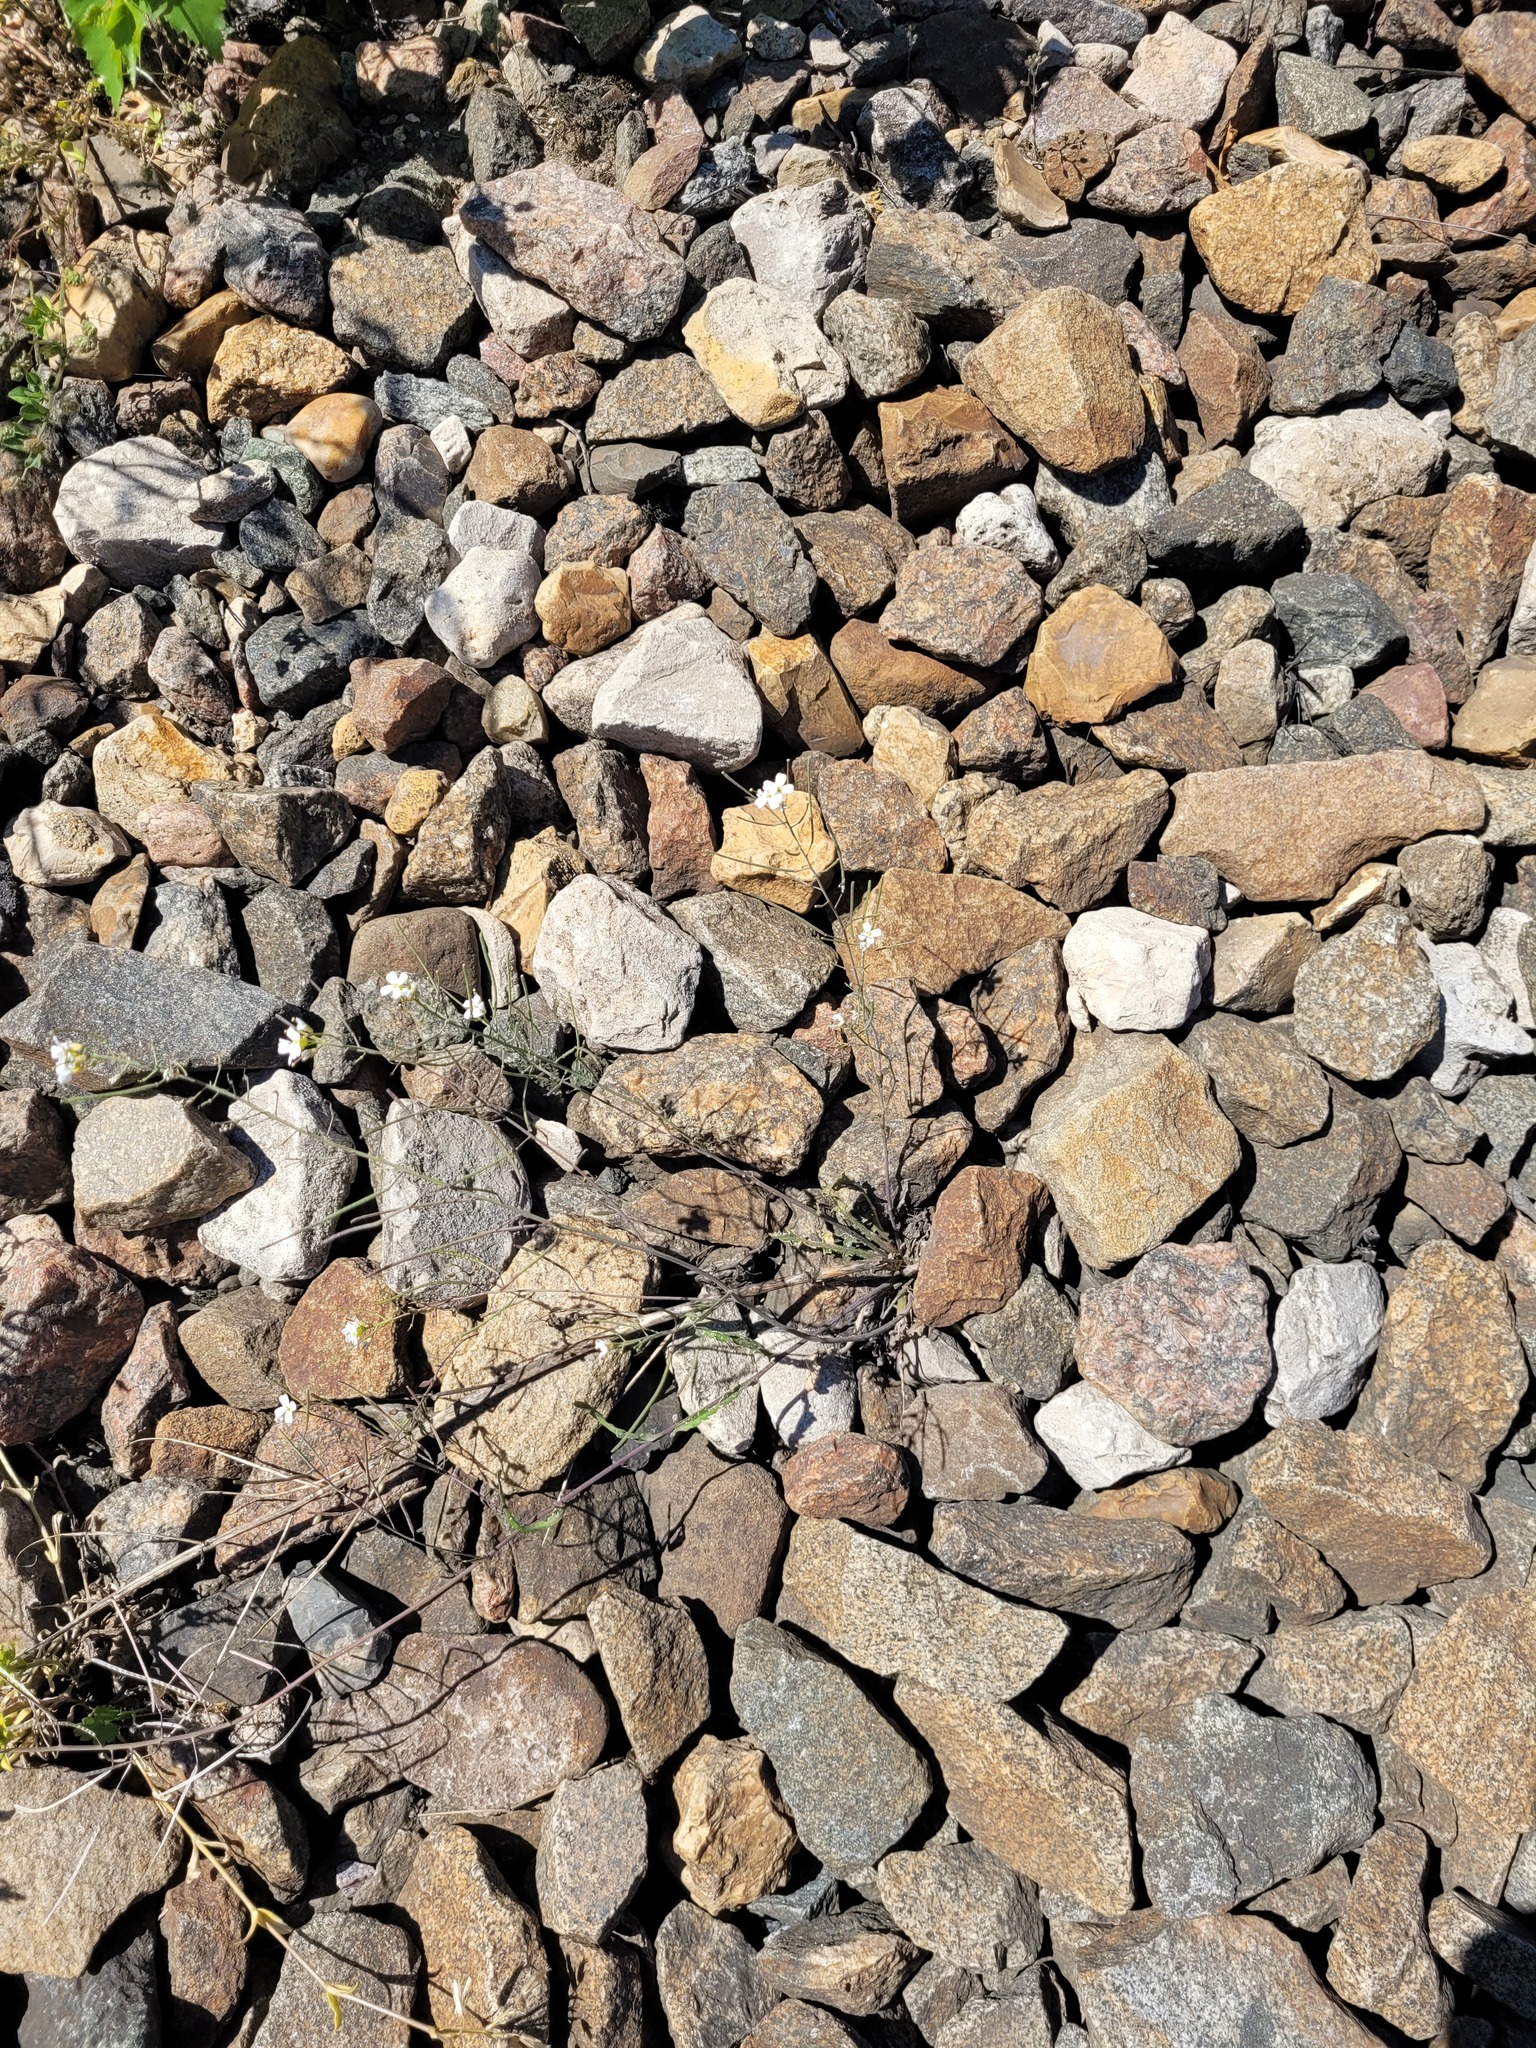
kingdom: Plantae
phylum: Tracheophyta
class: Magnoliopsida
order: Brassicales
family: Brassicaceae
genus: Arabidopsis
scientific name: Arabidopsis arenosa
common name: Sand rock-cress
